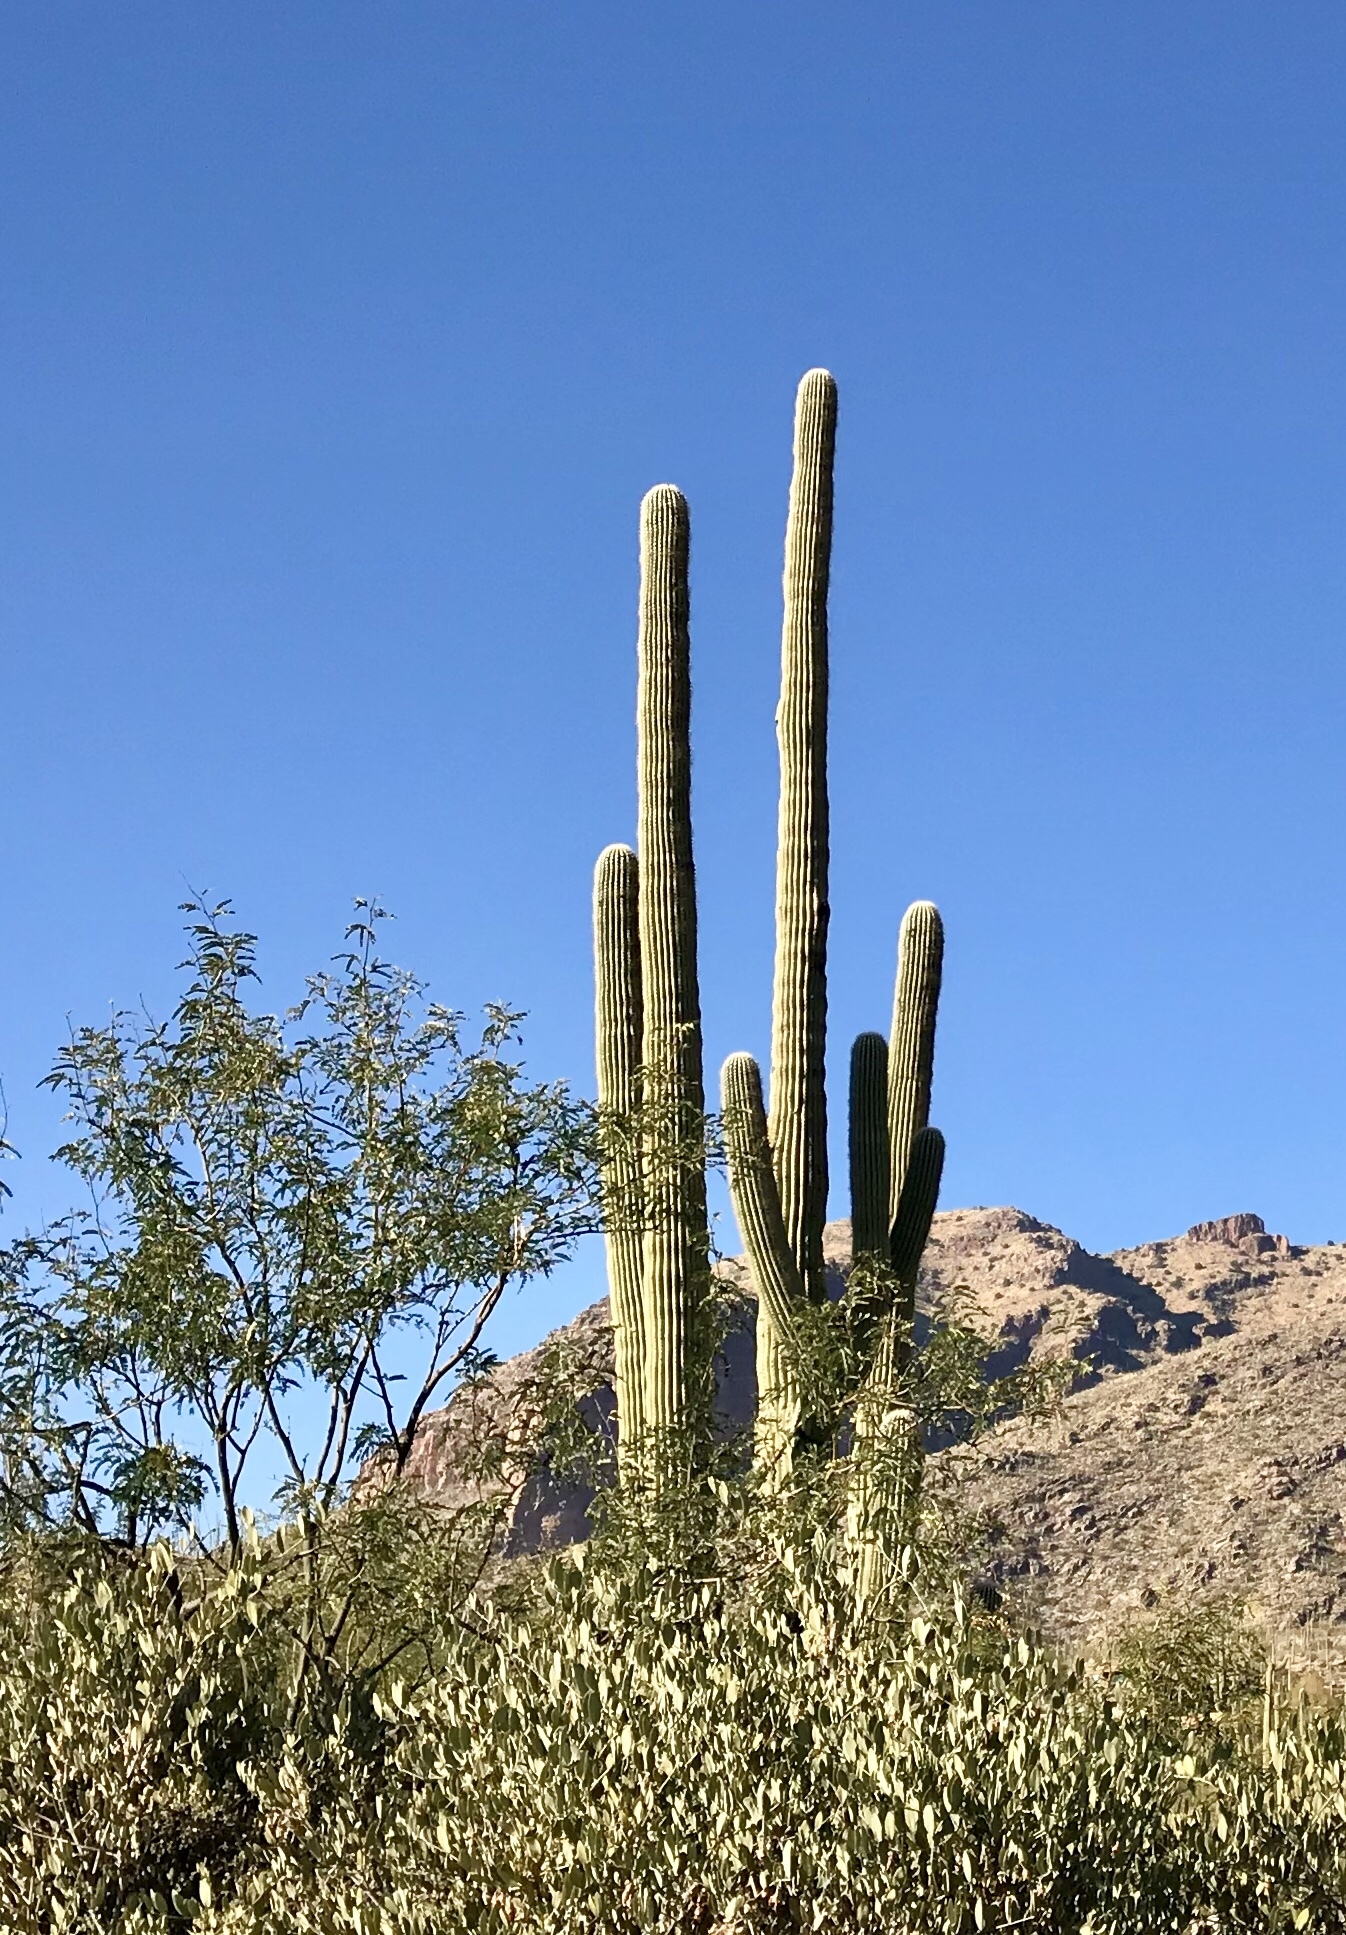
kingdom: Plantae
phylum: Tracheophyta
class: Magnoliopsida
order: Caryophyllales
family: Cactaceae
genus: Carnegiea
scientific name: Carnegiea gigantea
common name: Saguaro
